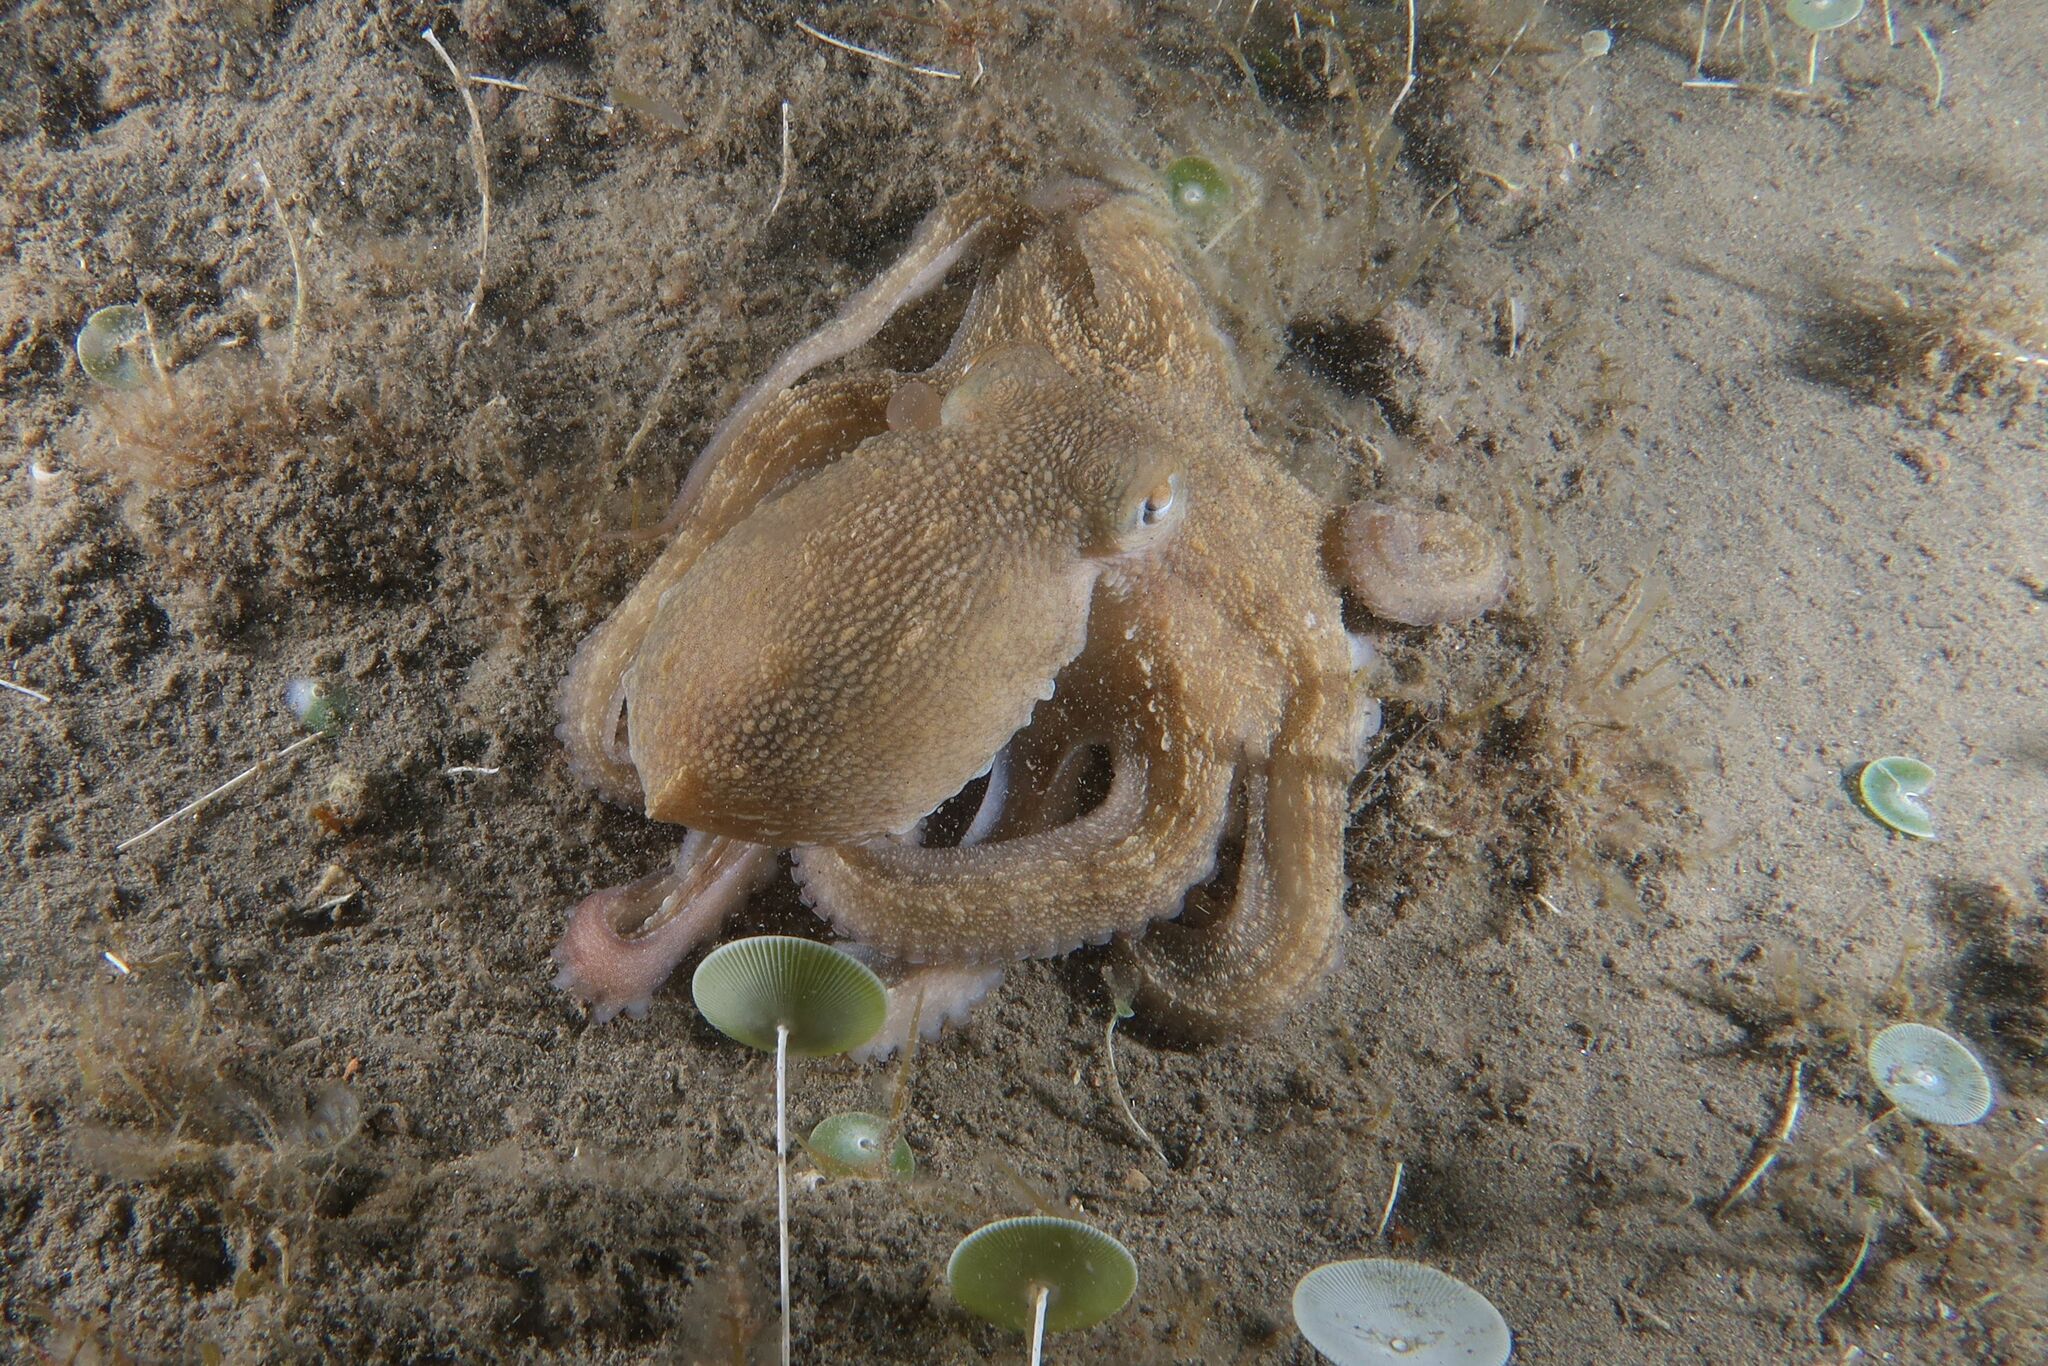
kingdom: Animalia
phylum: Mollusca
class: Cephalopoda
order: Octopoda
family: Octopodidae
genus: Octopus
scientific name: Octopus vulgaris
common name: Common octopus
